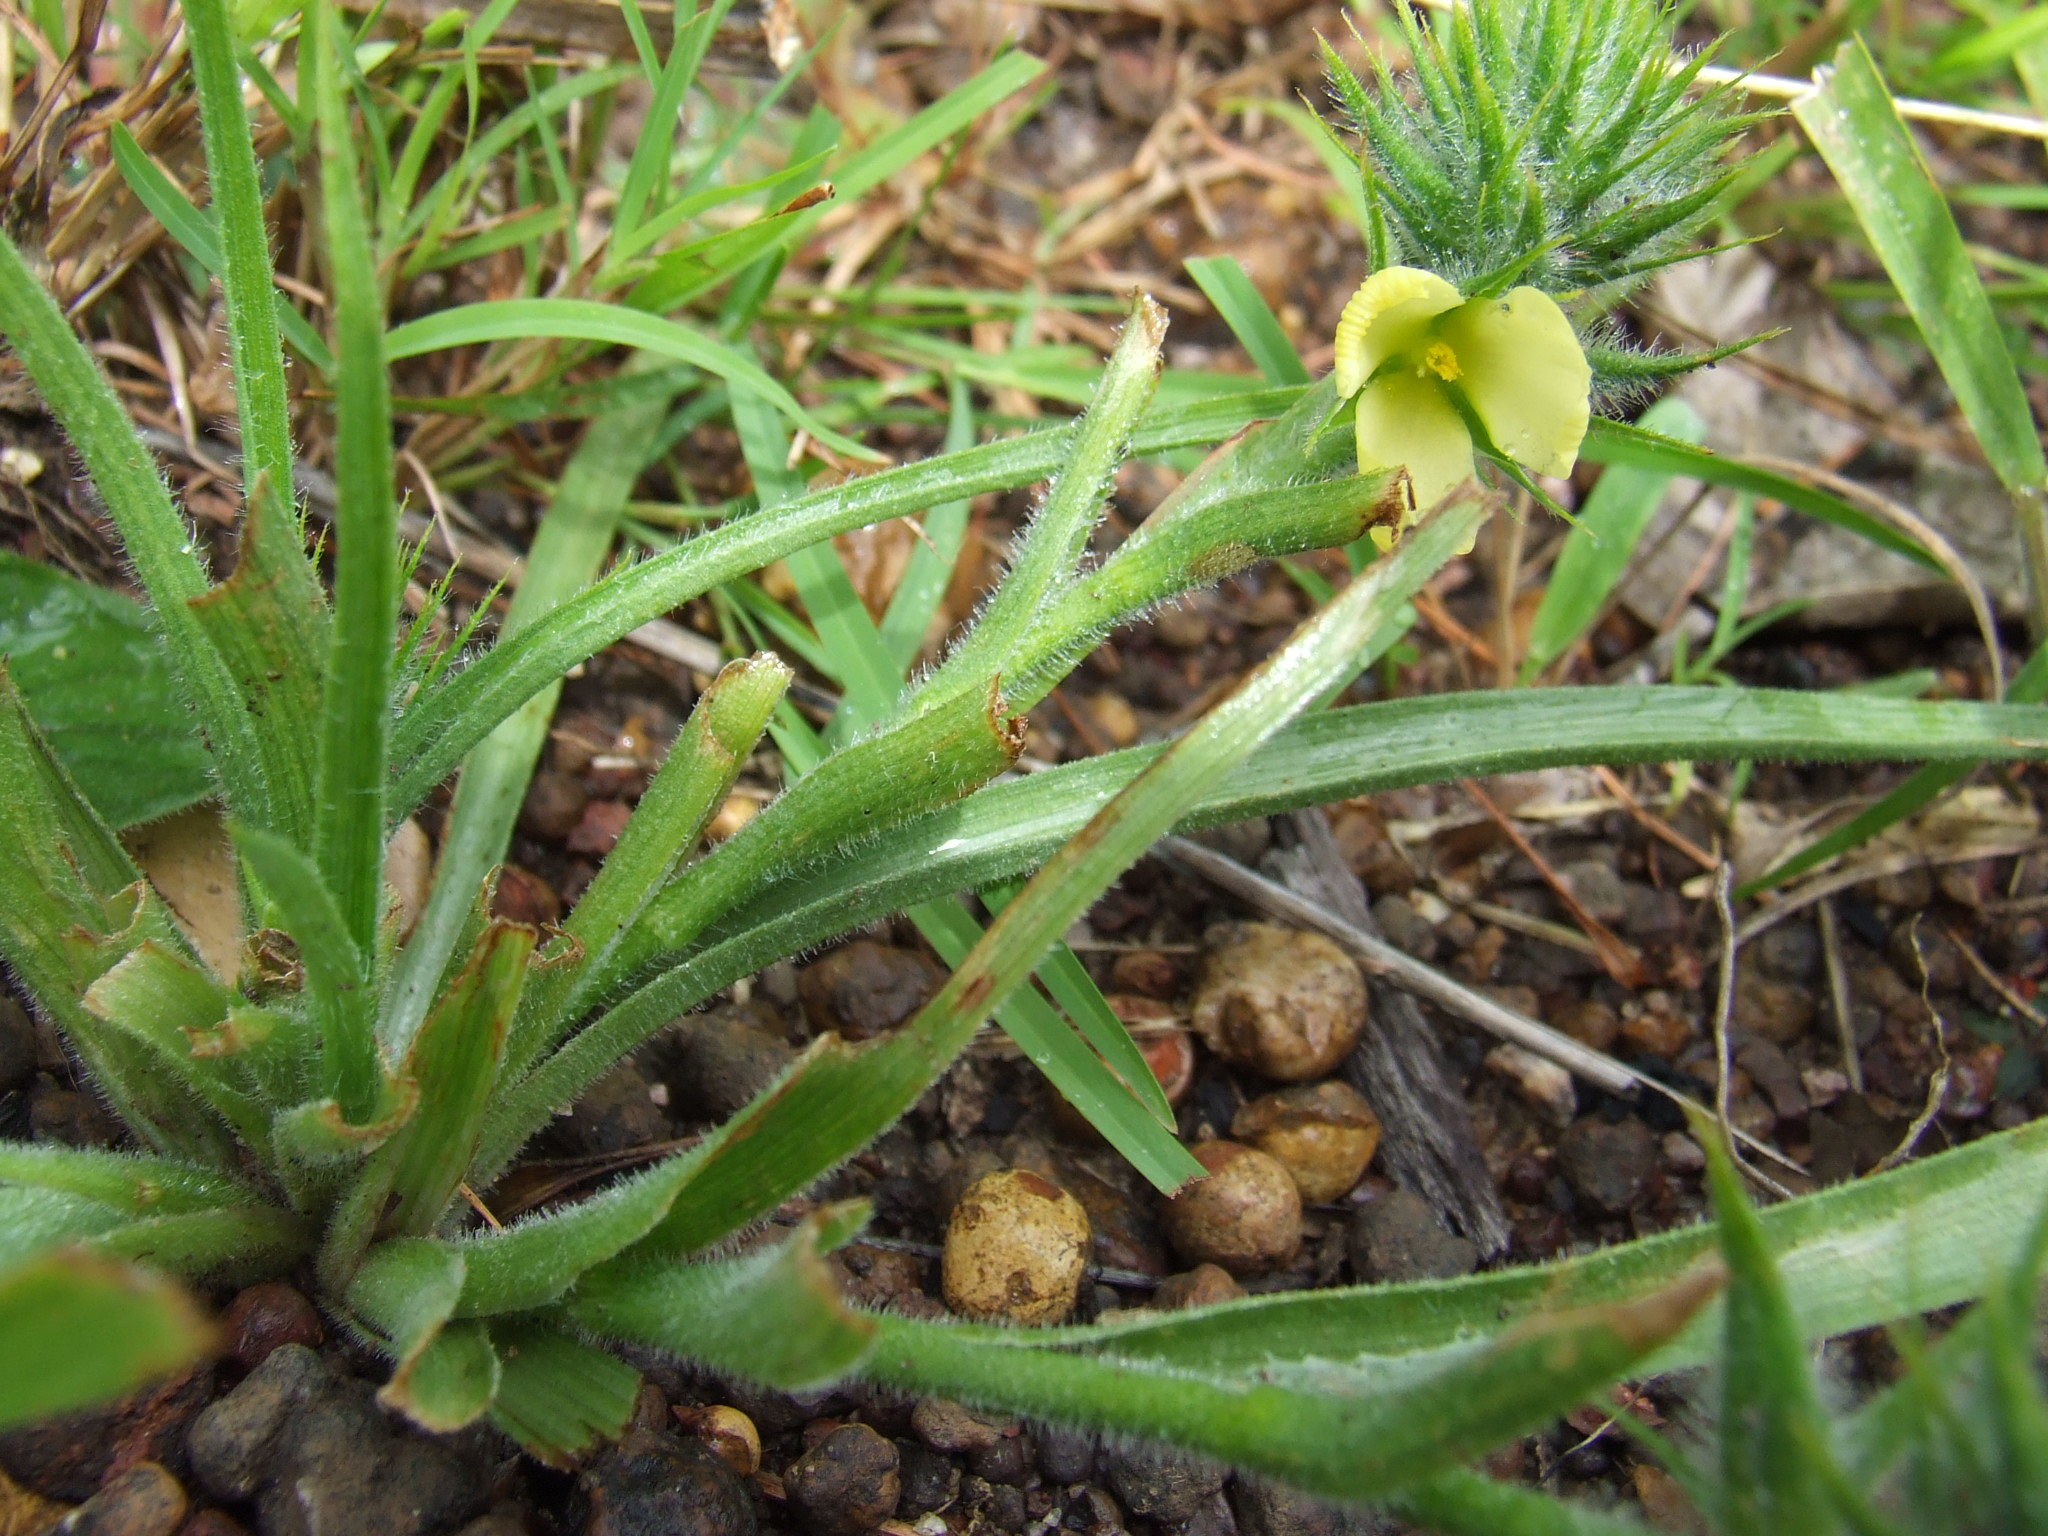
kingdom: Plantae
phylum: Tracheophyta
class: Liliopsida
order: Commelinales
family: Commelinaceae
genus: Cartonema
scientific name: Cartonema spicatum
